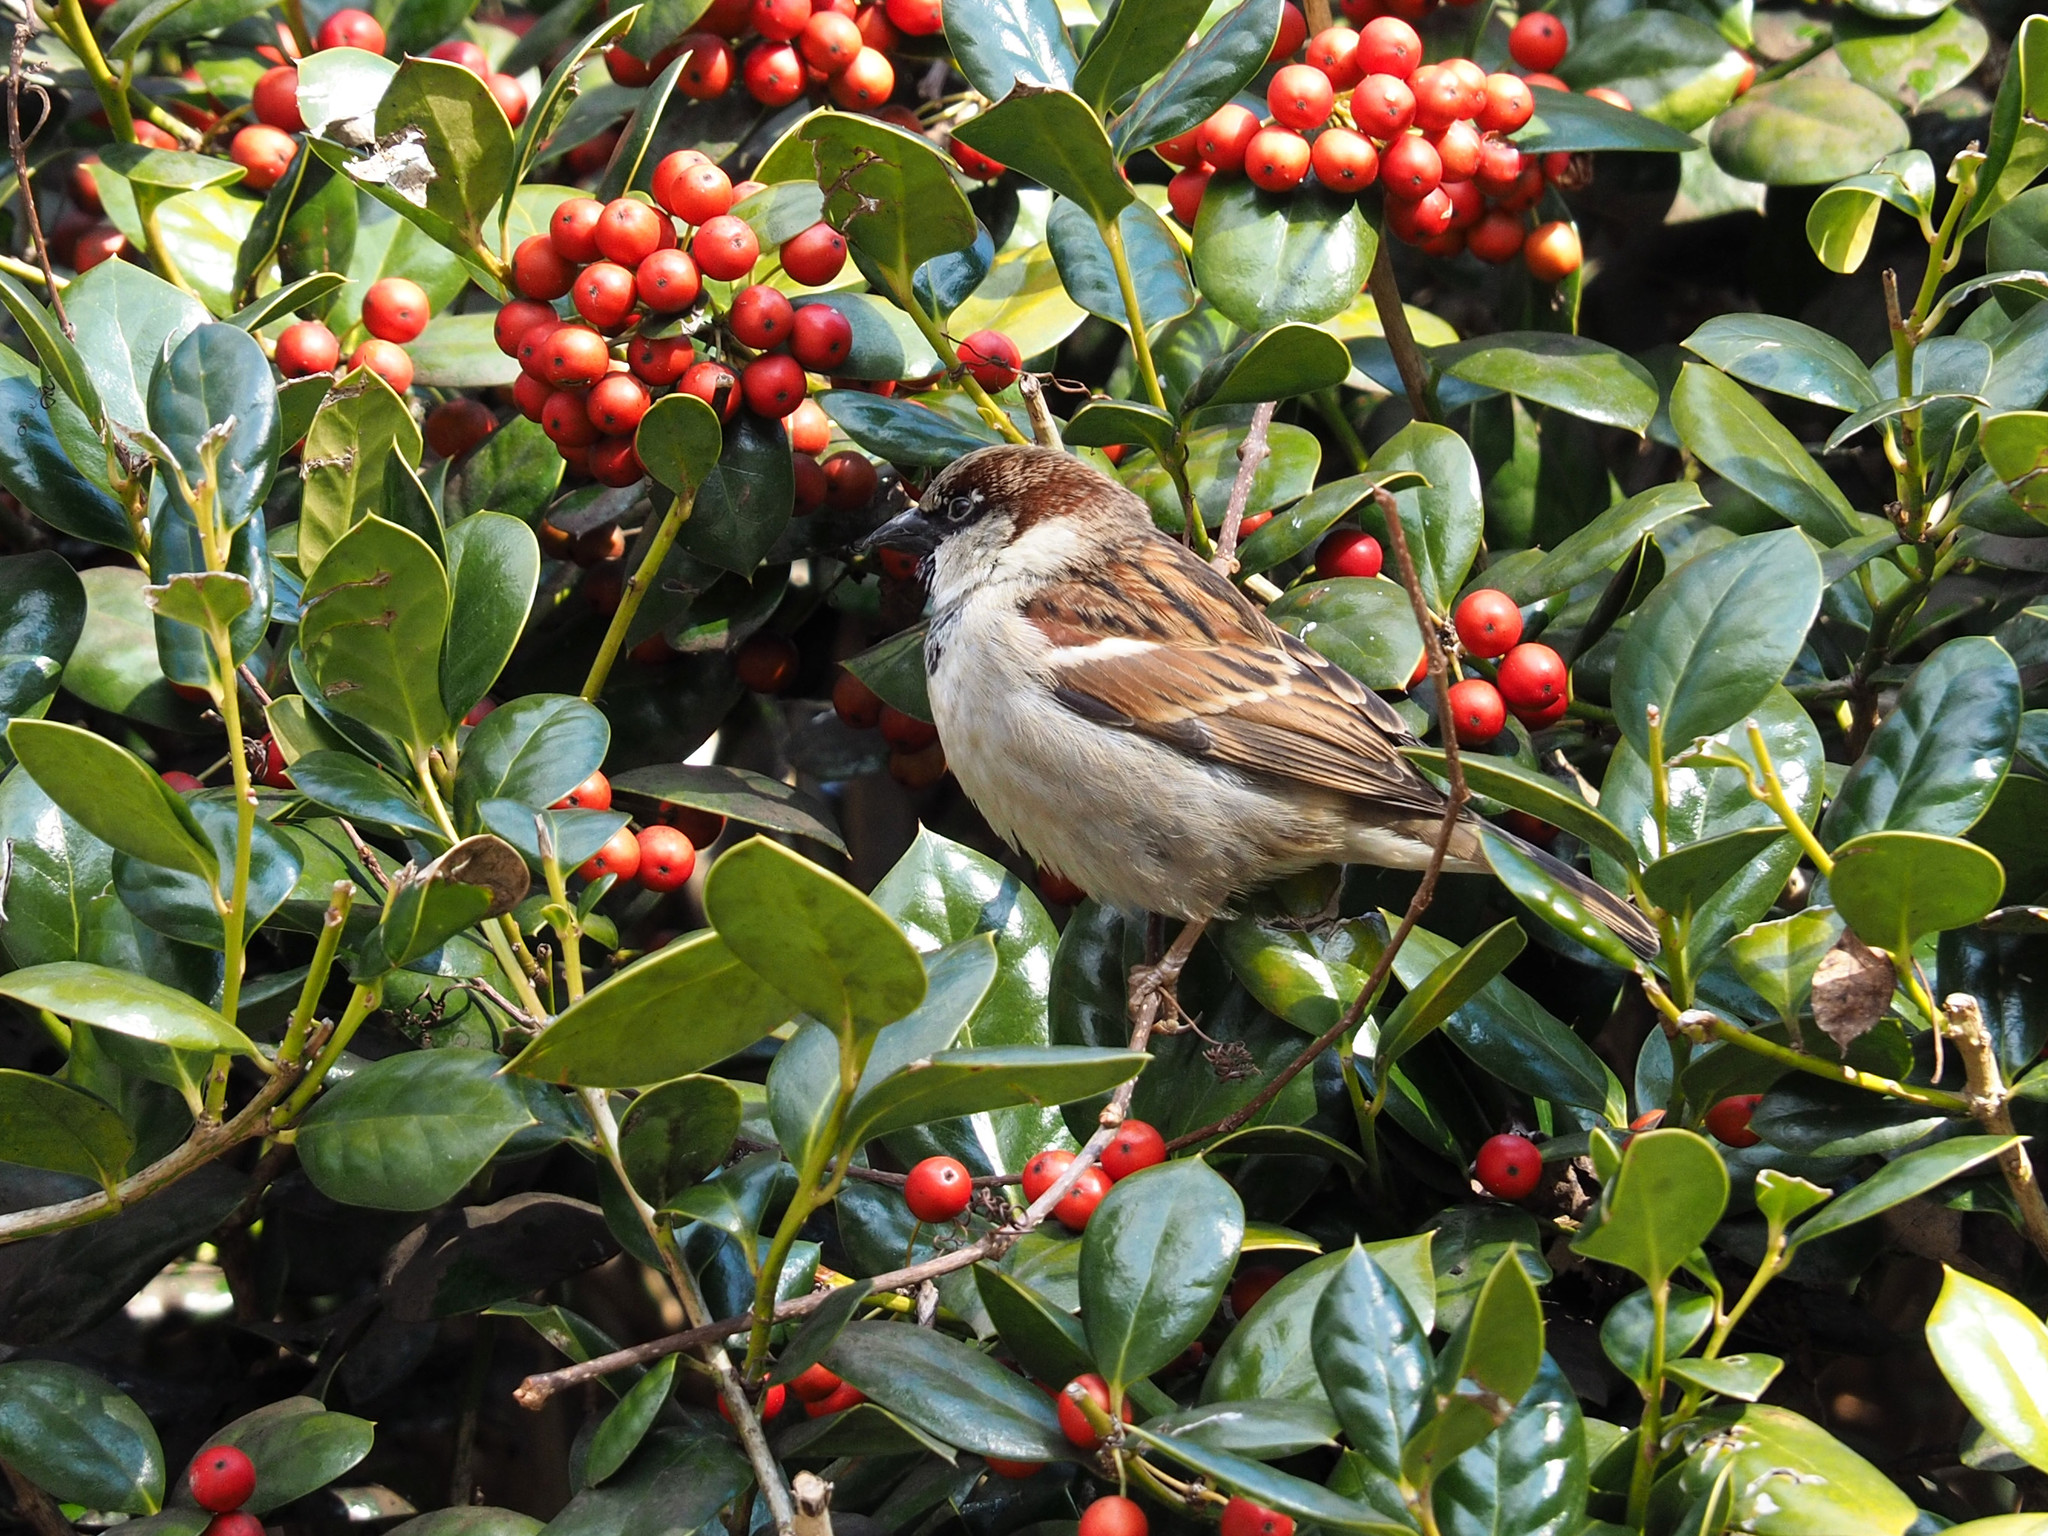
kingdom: Animalia
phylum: Chordata
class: Aves
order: Passeriformes
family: Passeridae
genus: Passer
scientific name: Passer domesticus
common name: House sparrow
